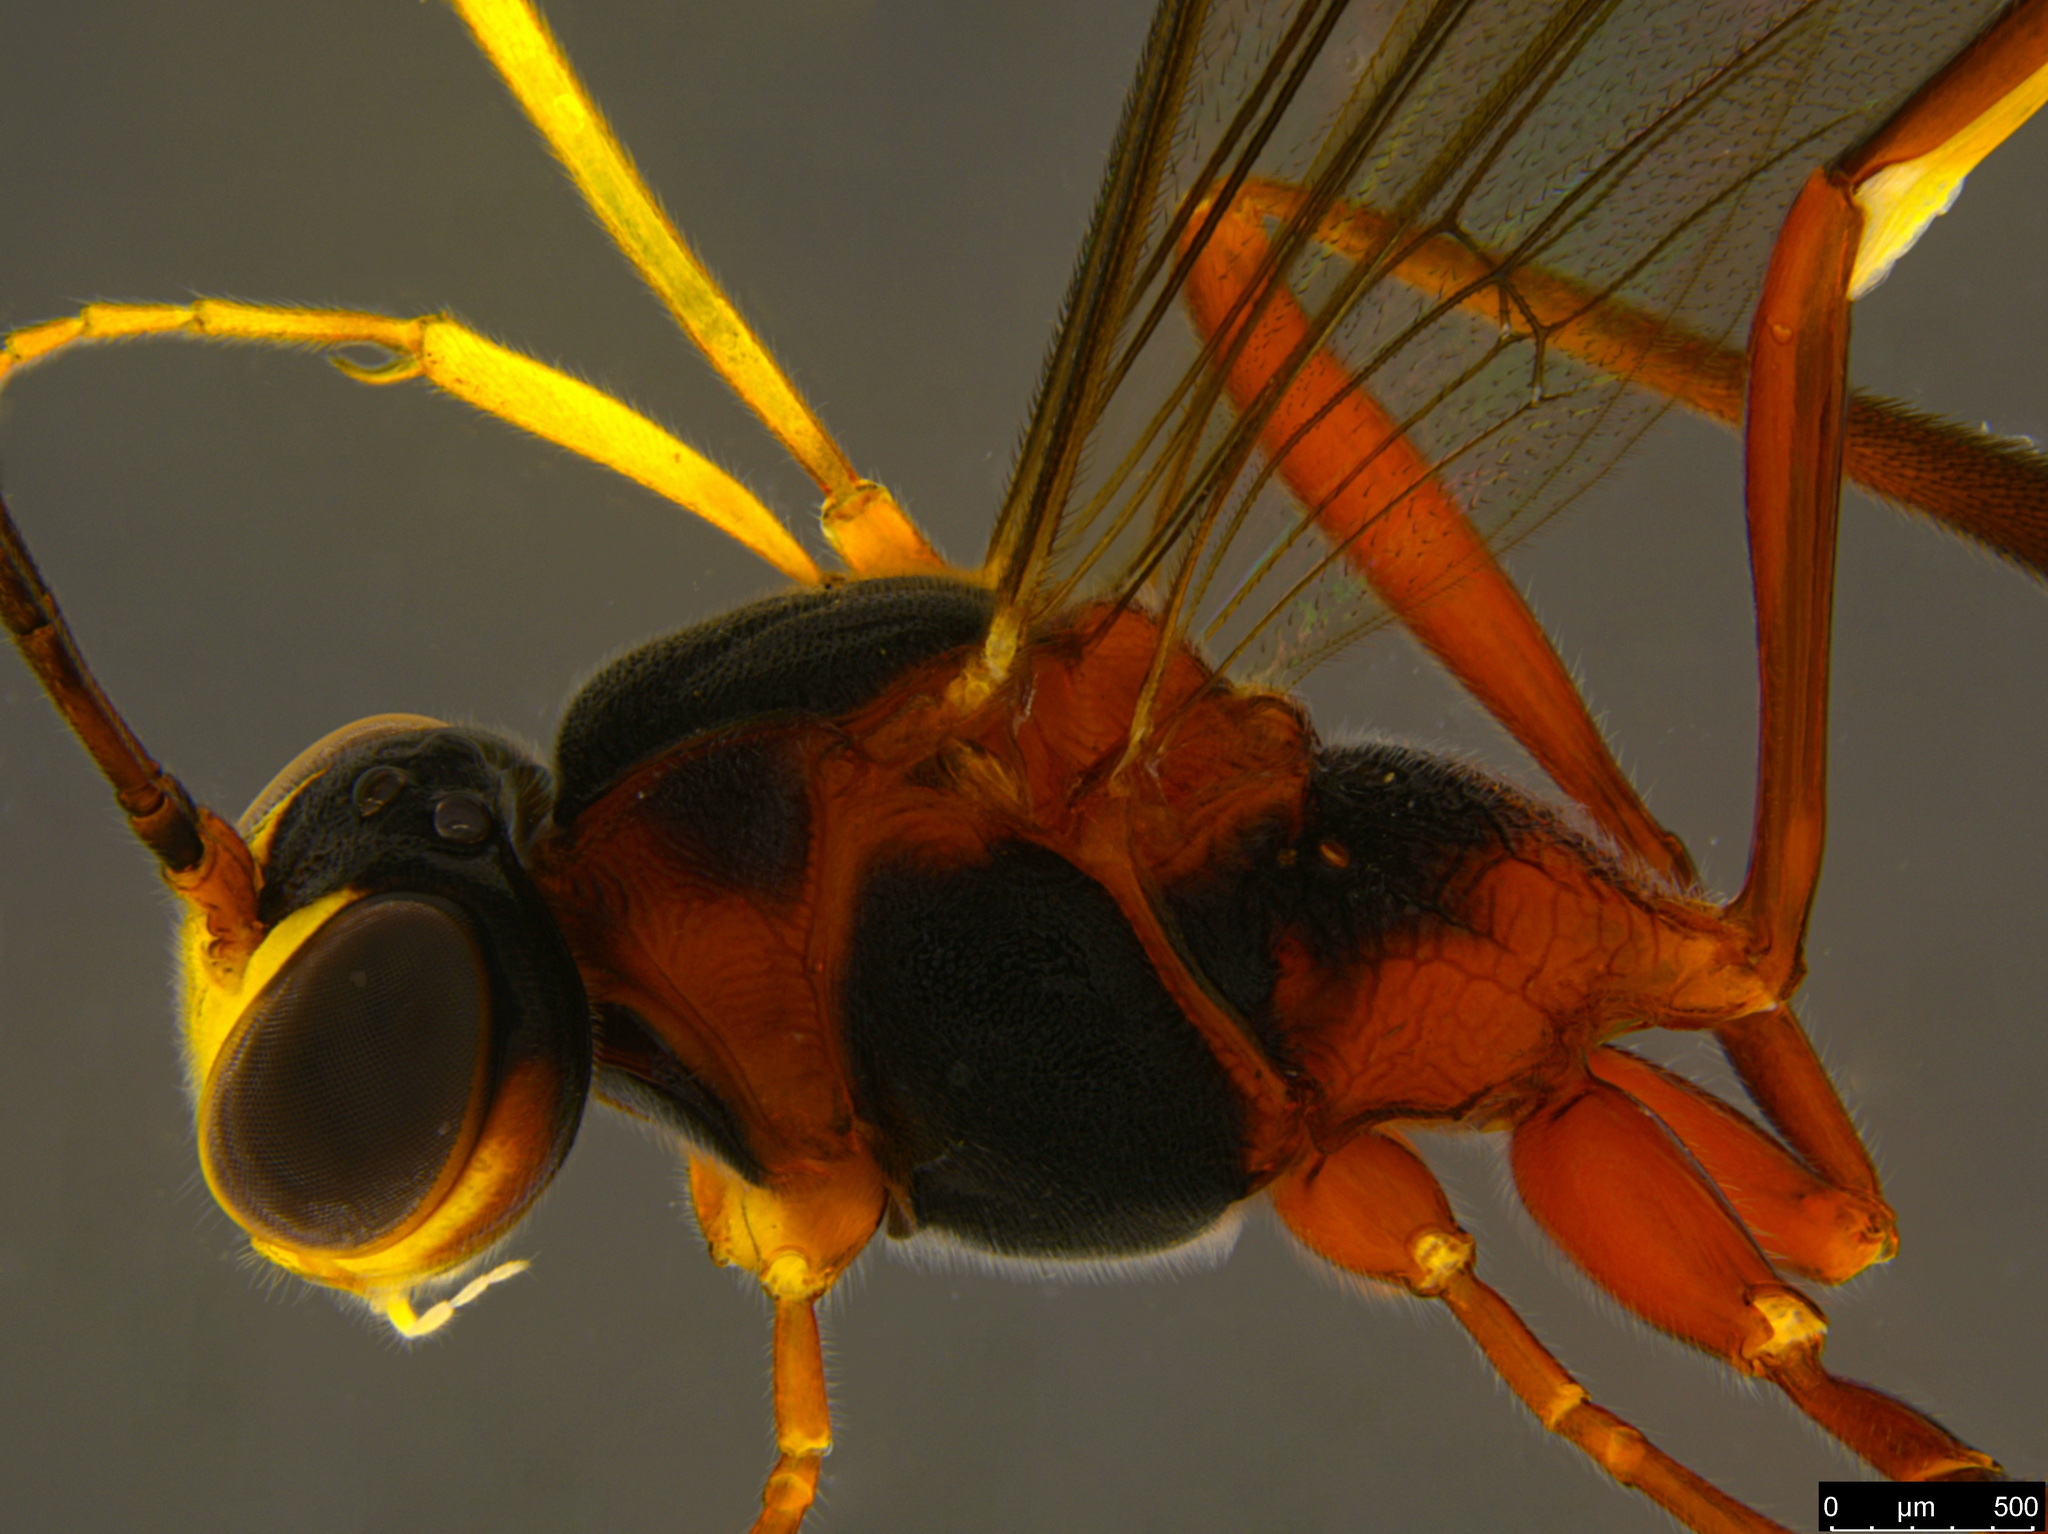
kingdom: Animalia
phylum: Arthropoda
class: Insecta
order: Hymenoptera
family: Ichneumonidae
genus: Habronyx
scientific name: Habronyx victorianus
